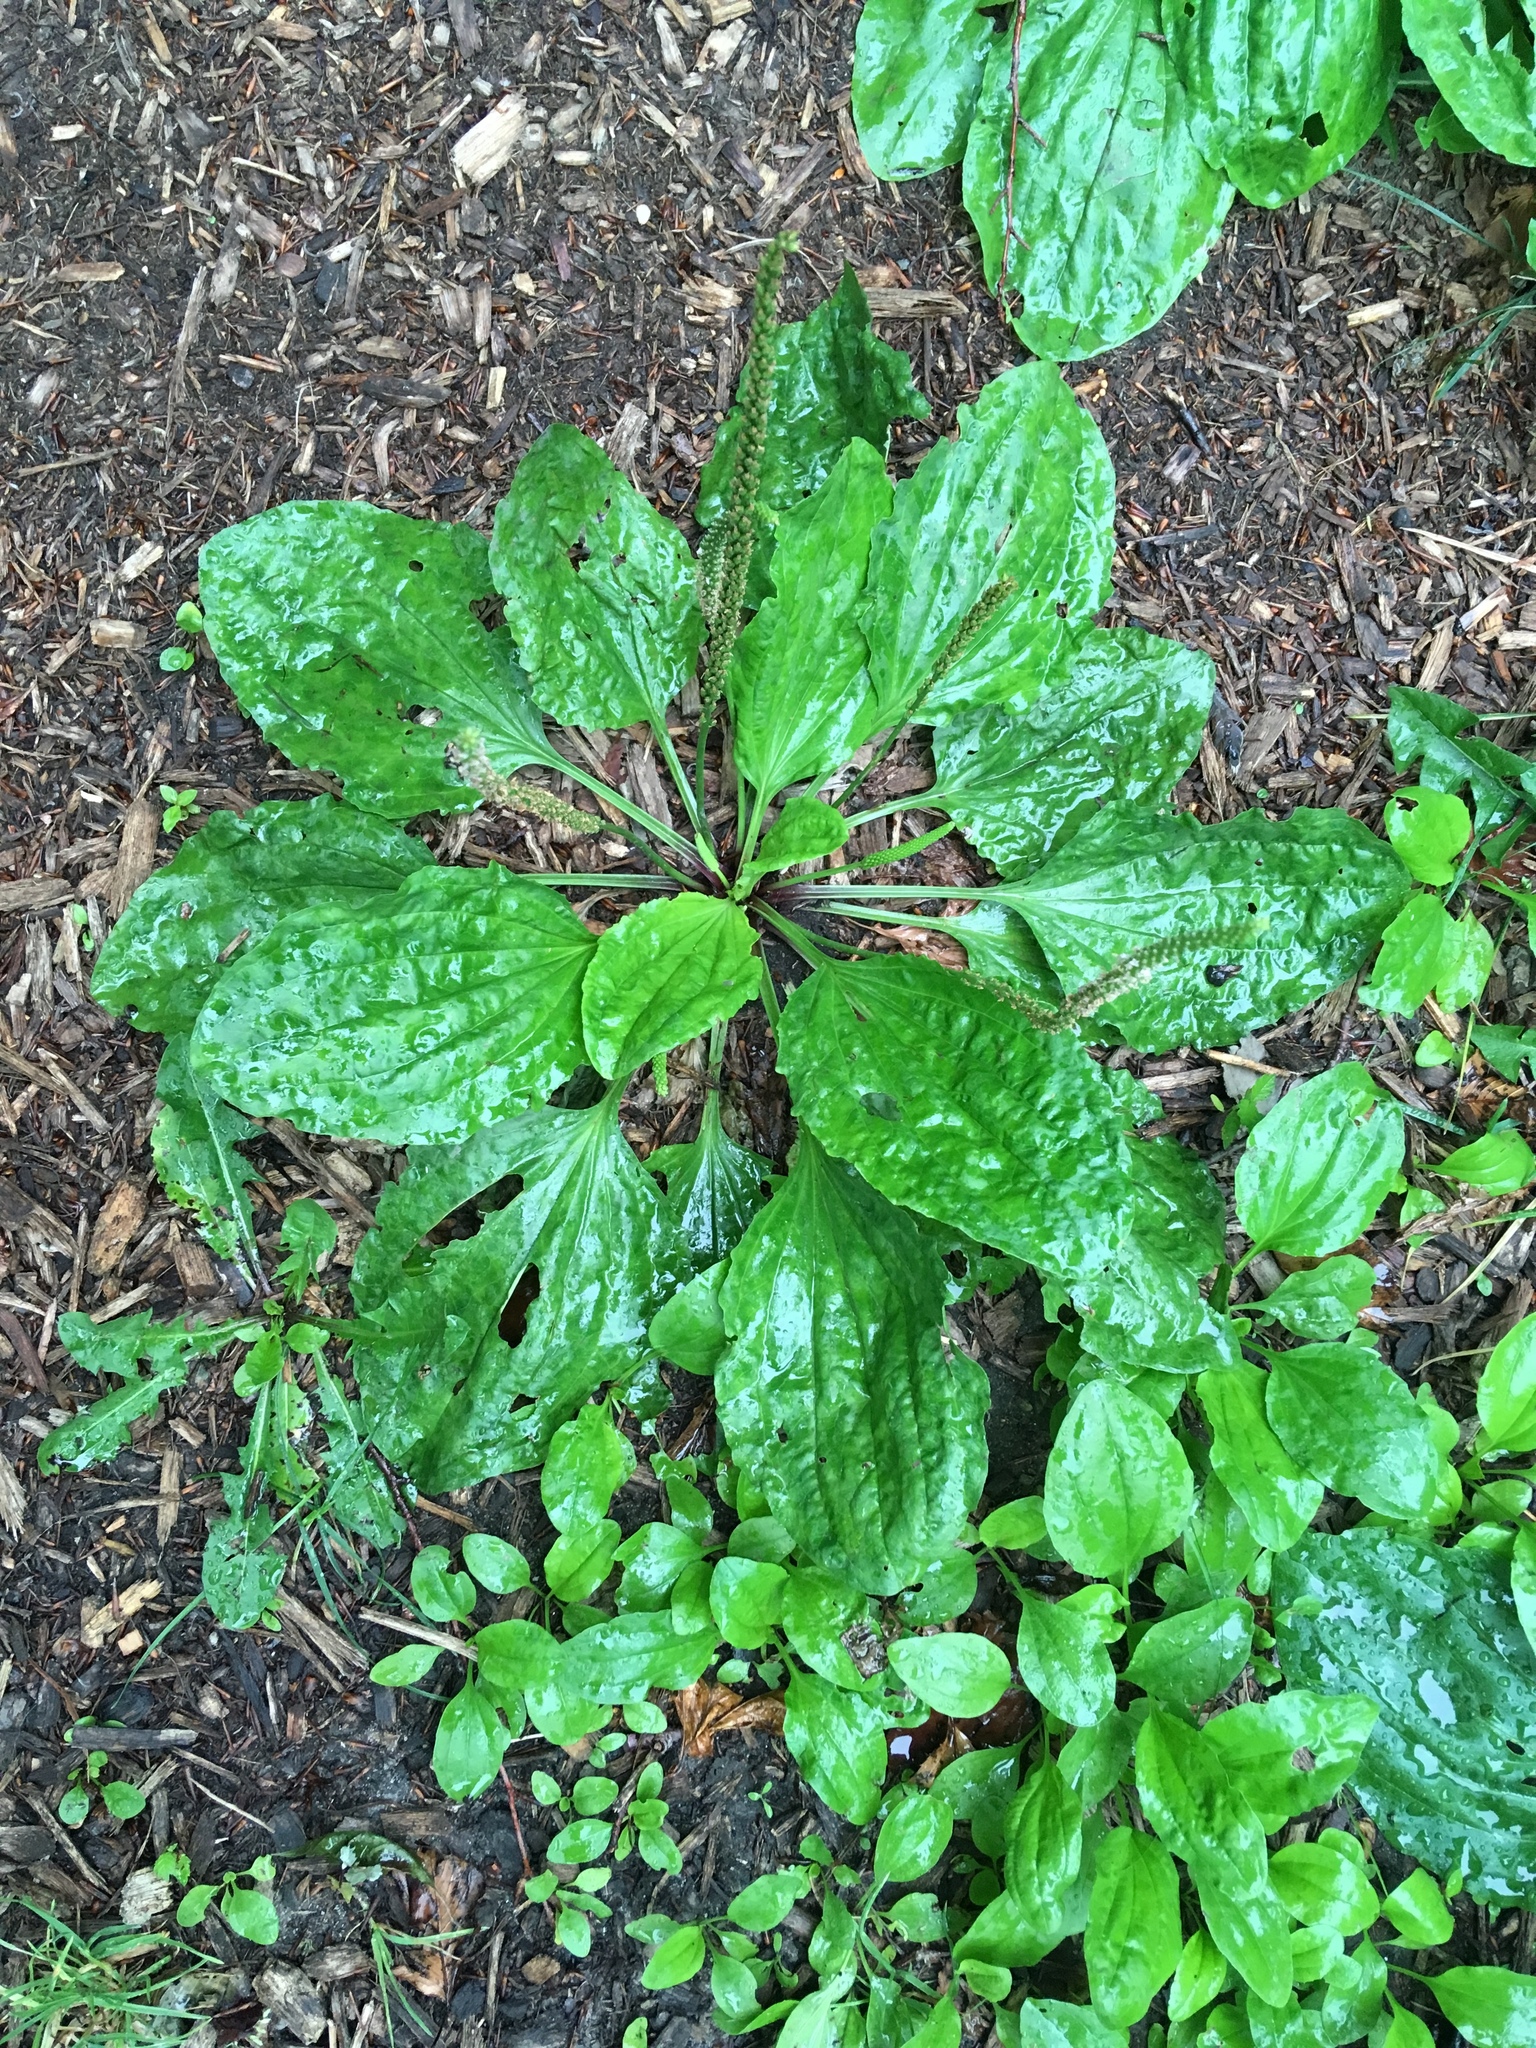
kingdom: Plantae
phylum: Tracheophyta
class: Magnoliopsida
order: Lamiales
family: Plantaginaceae
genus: Plantago
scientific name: Plantago rugelii
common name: American plantain
